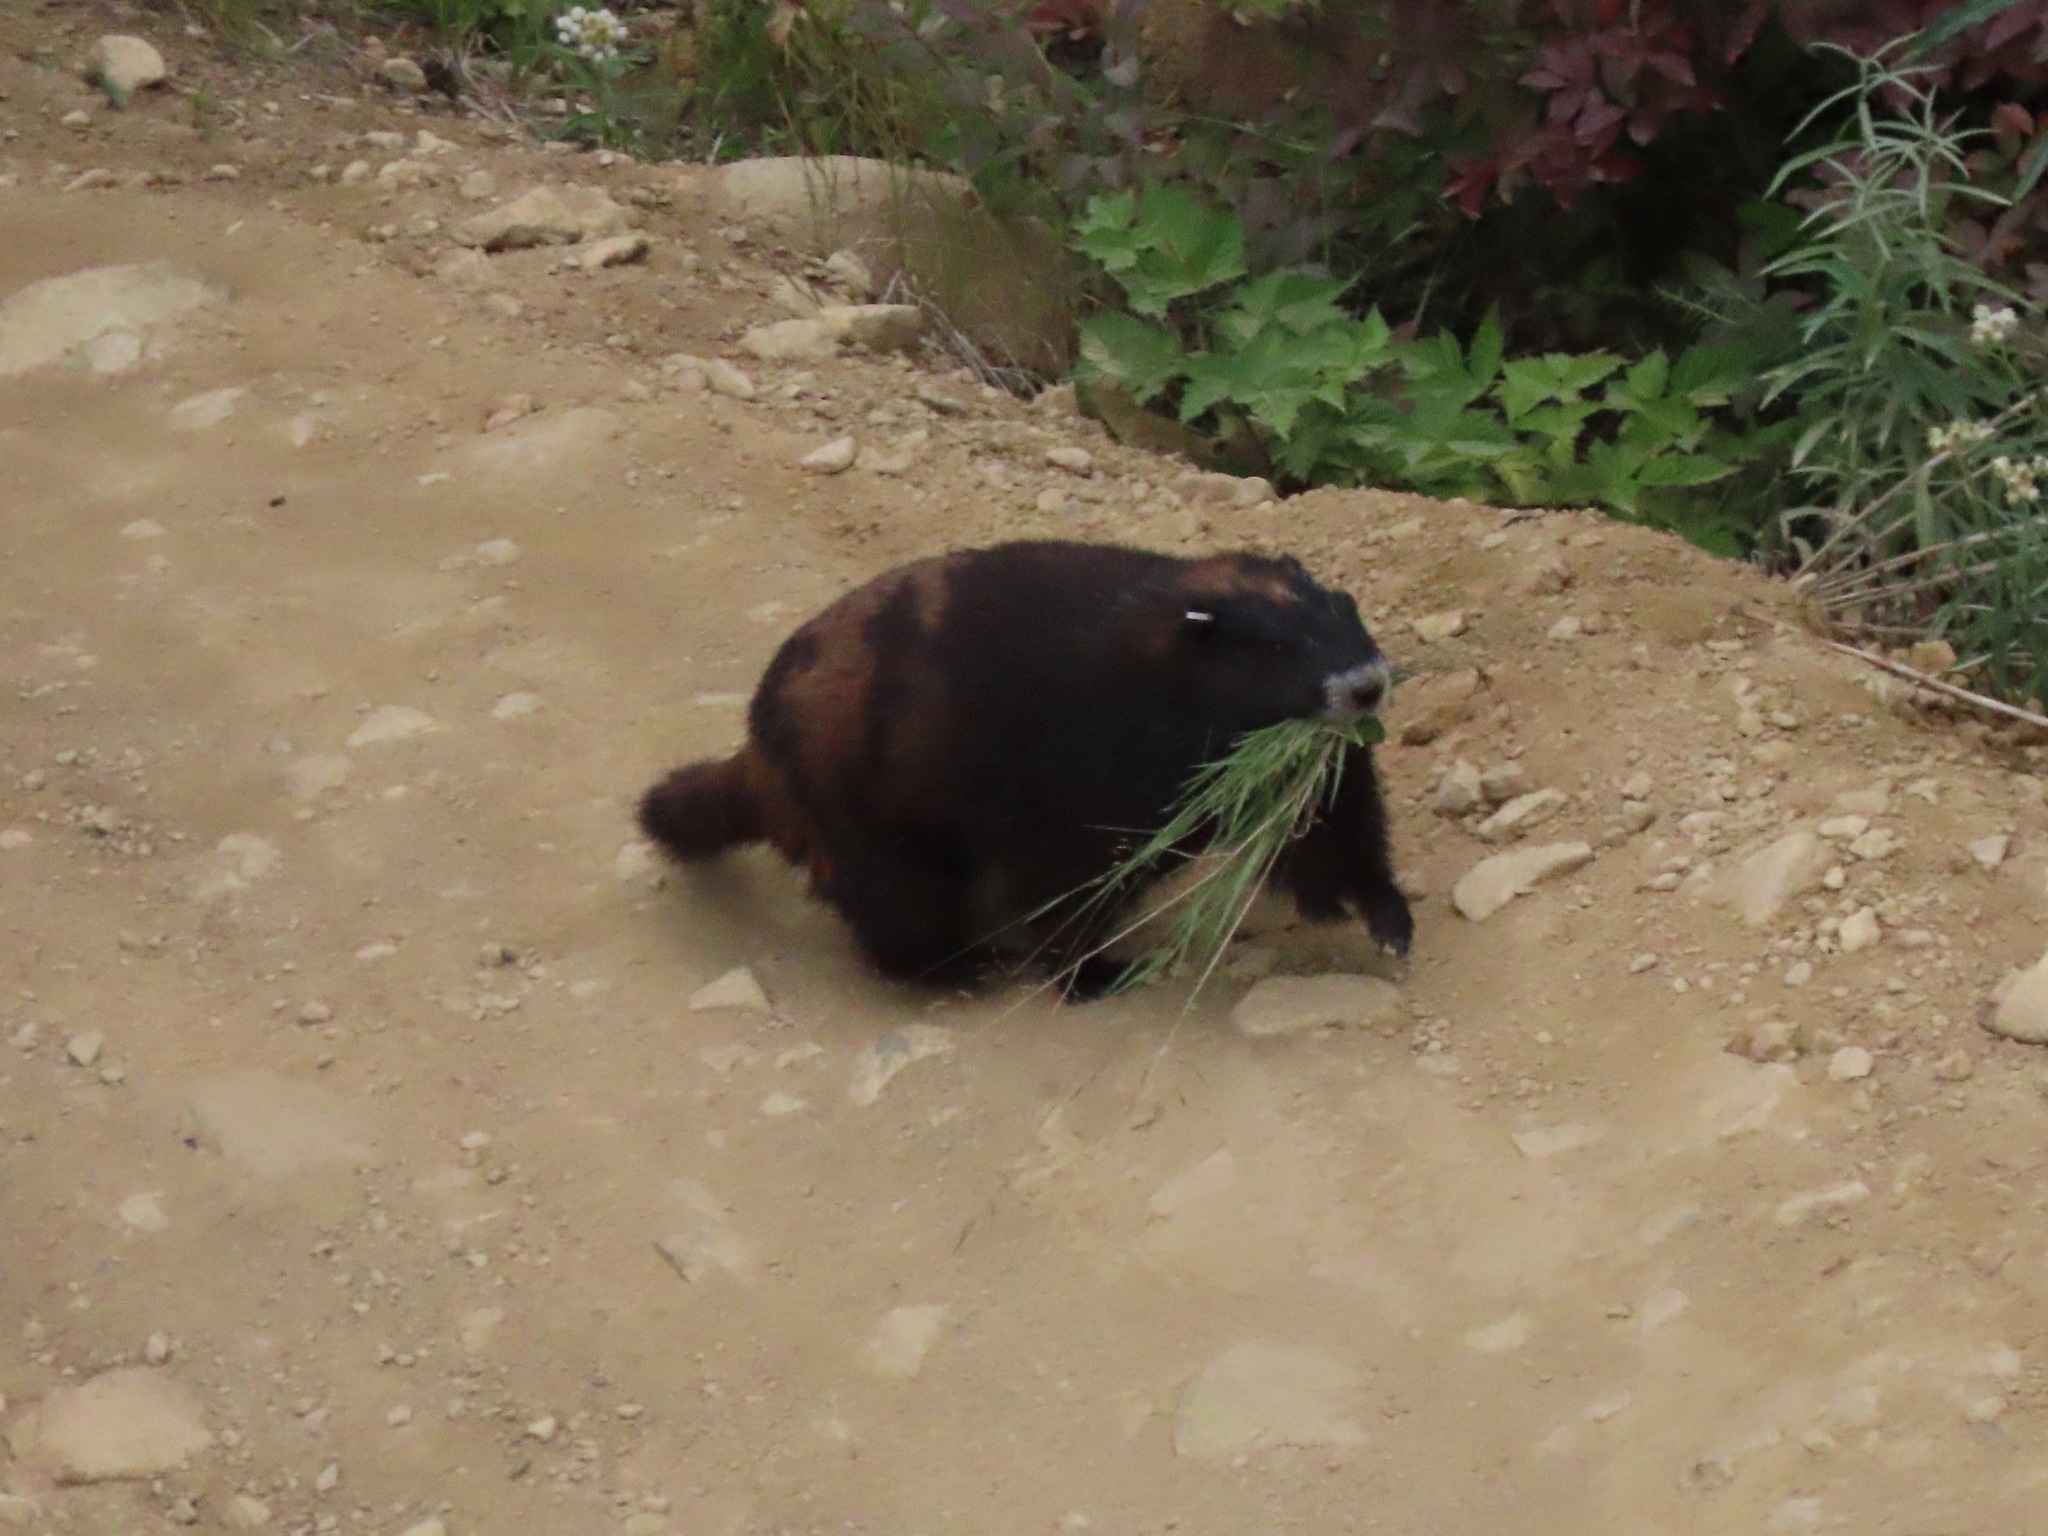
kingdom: Animalia
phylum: Chordata
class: Mammalia
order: Rodentia
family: Sciuridae
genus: Marmota
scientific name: Marmota vancouverensis
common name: Vancouver island marmot
